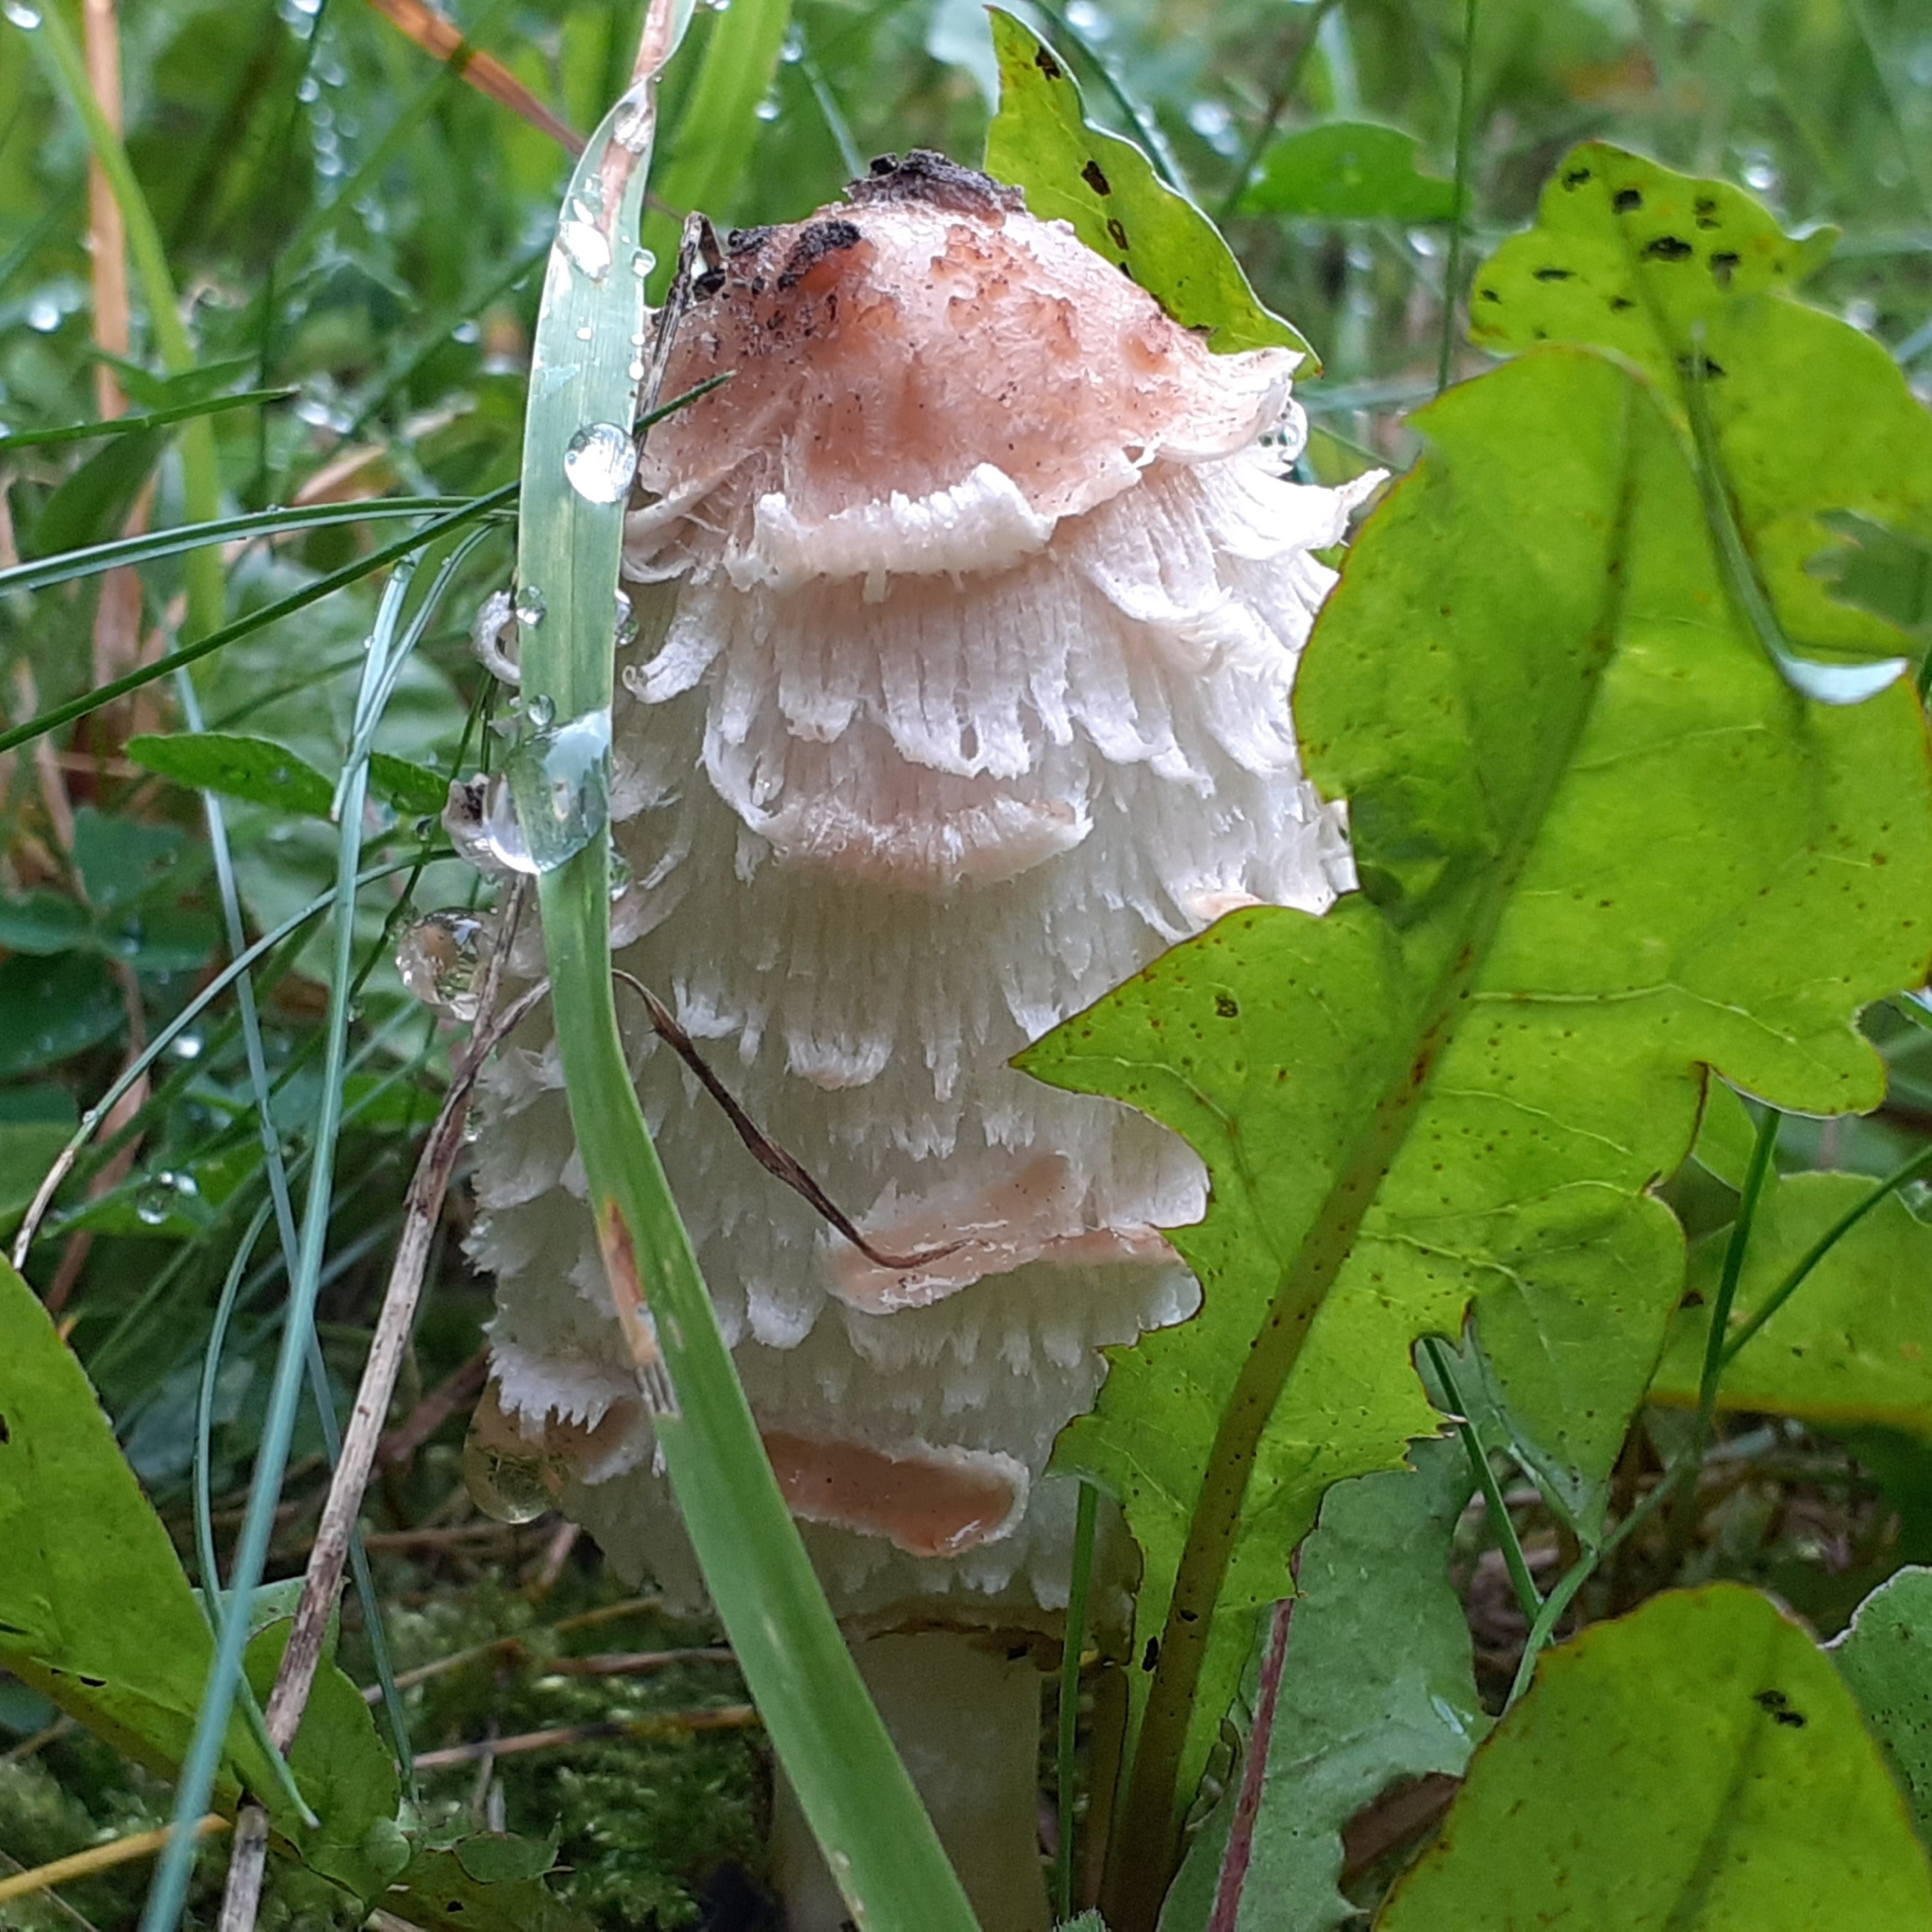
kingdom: Fungi
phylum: Basidiomycota
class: Agaricomycetes
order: Agaricales
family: Agaricaceae
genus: Coprinus
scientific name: Coprinus comatus
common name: Lawyer's wig
